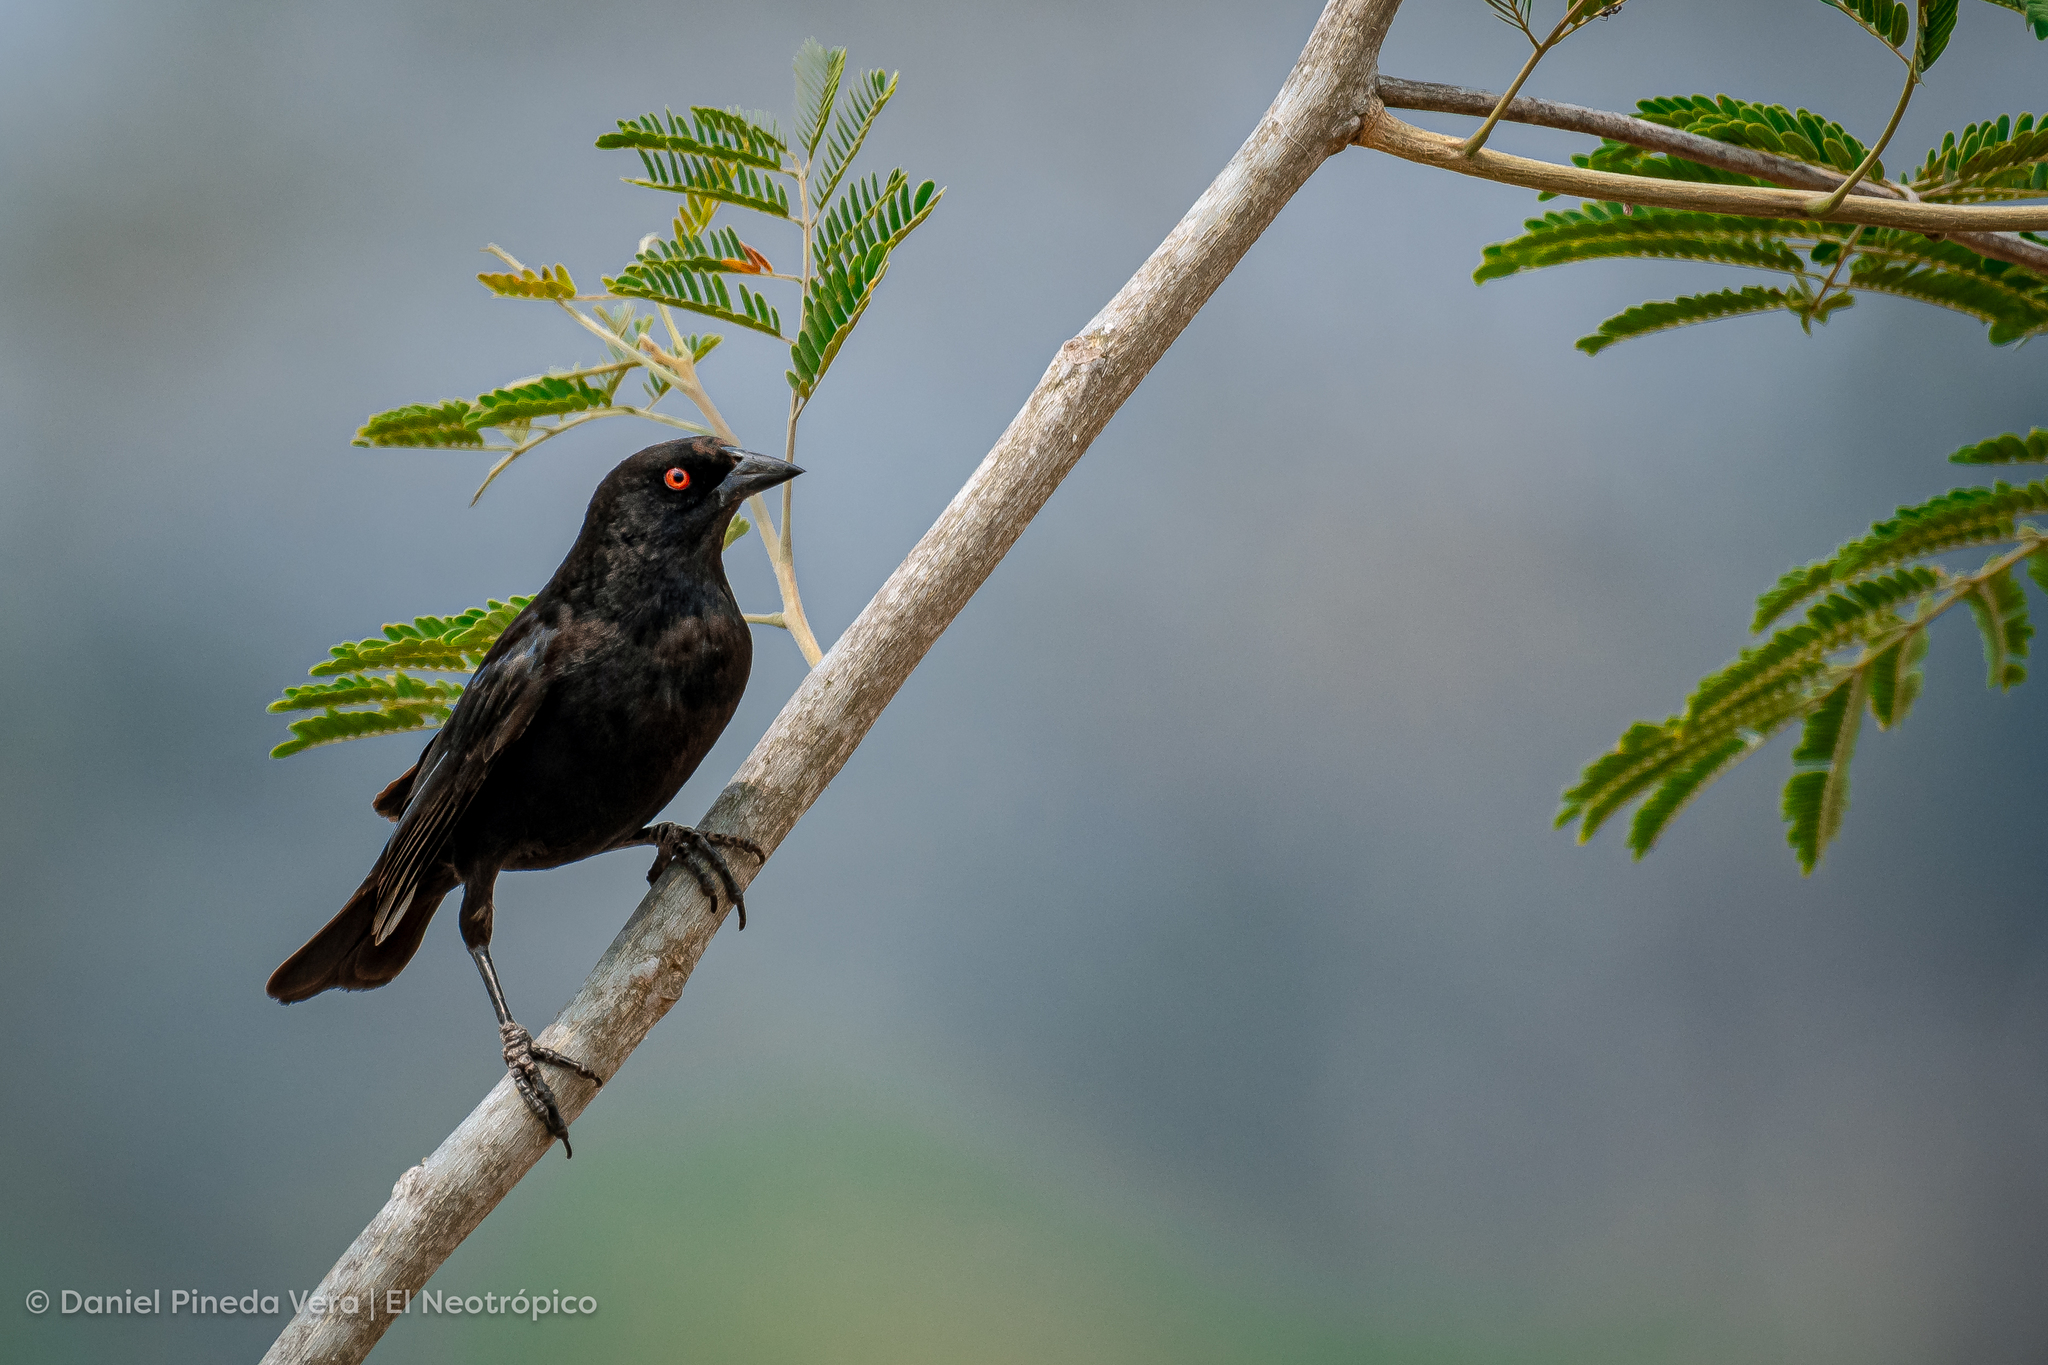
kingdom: Animalia
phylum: Chordata
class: Aves
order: Passeriformes
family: Icteridae
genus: Molothrus
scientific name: Molothrus aeneus
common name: Bronzed cowbird
